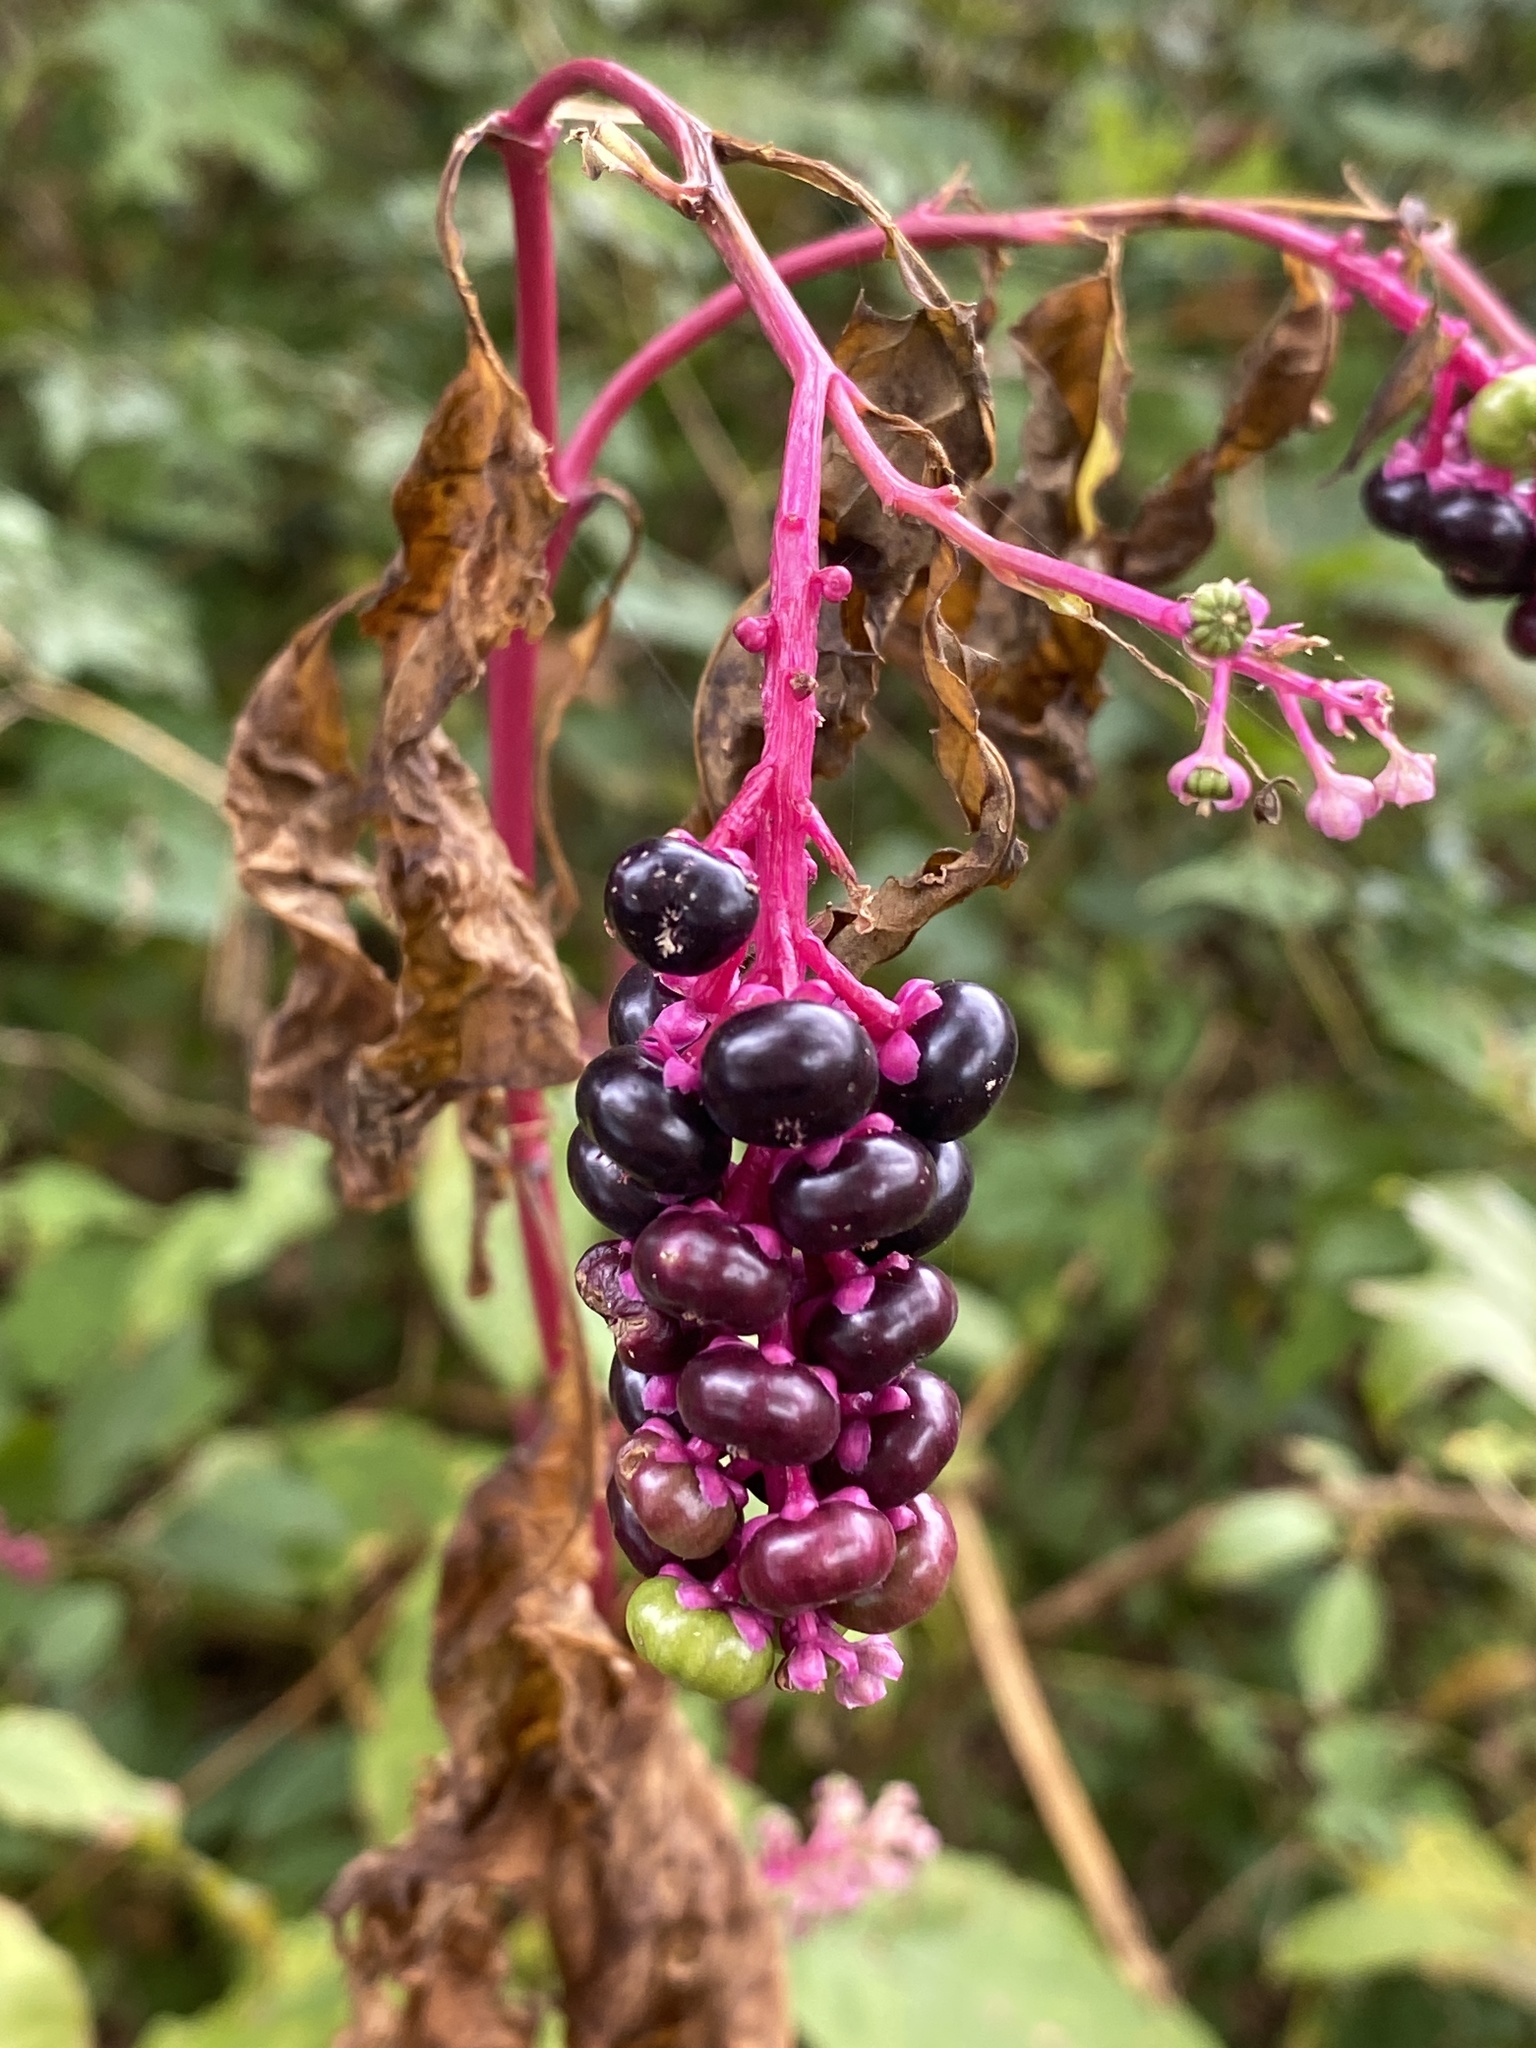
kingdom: Plantae
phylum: Tracheophyta
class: Magnoliopsida
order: Caryophyllales
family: Phytolaccaceae
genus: Phytolacca
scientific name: Phytolacca americana
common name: American pokeweed
